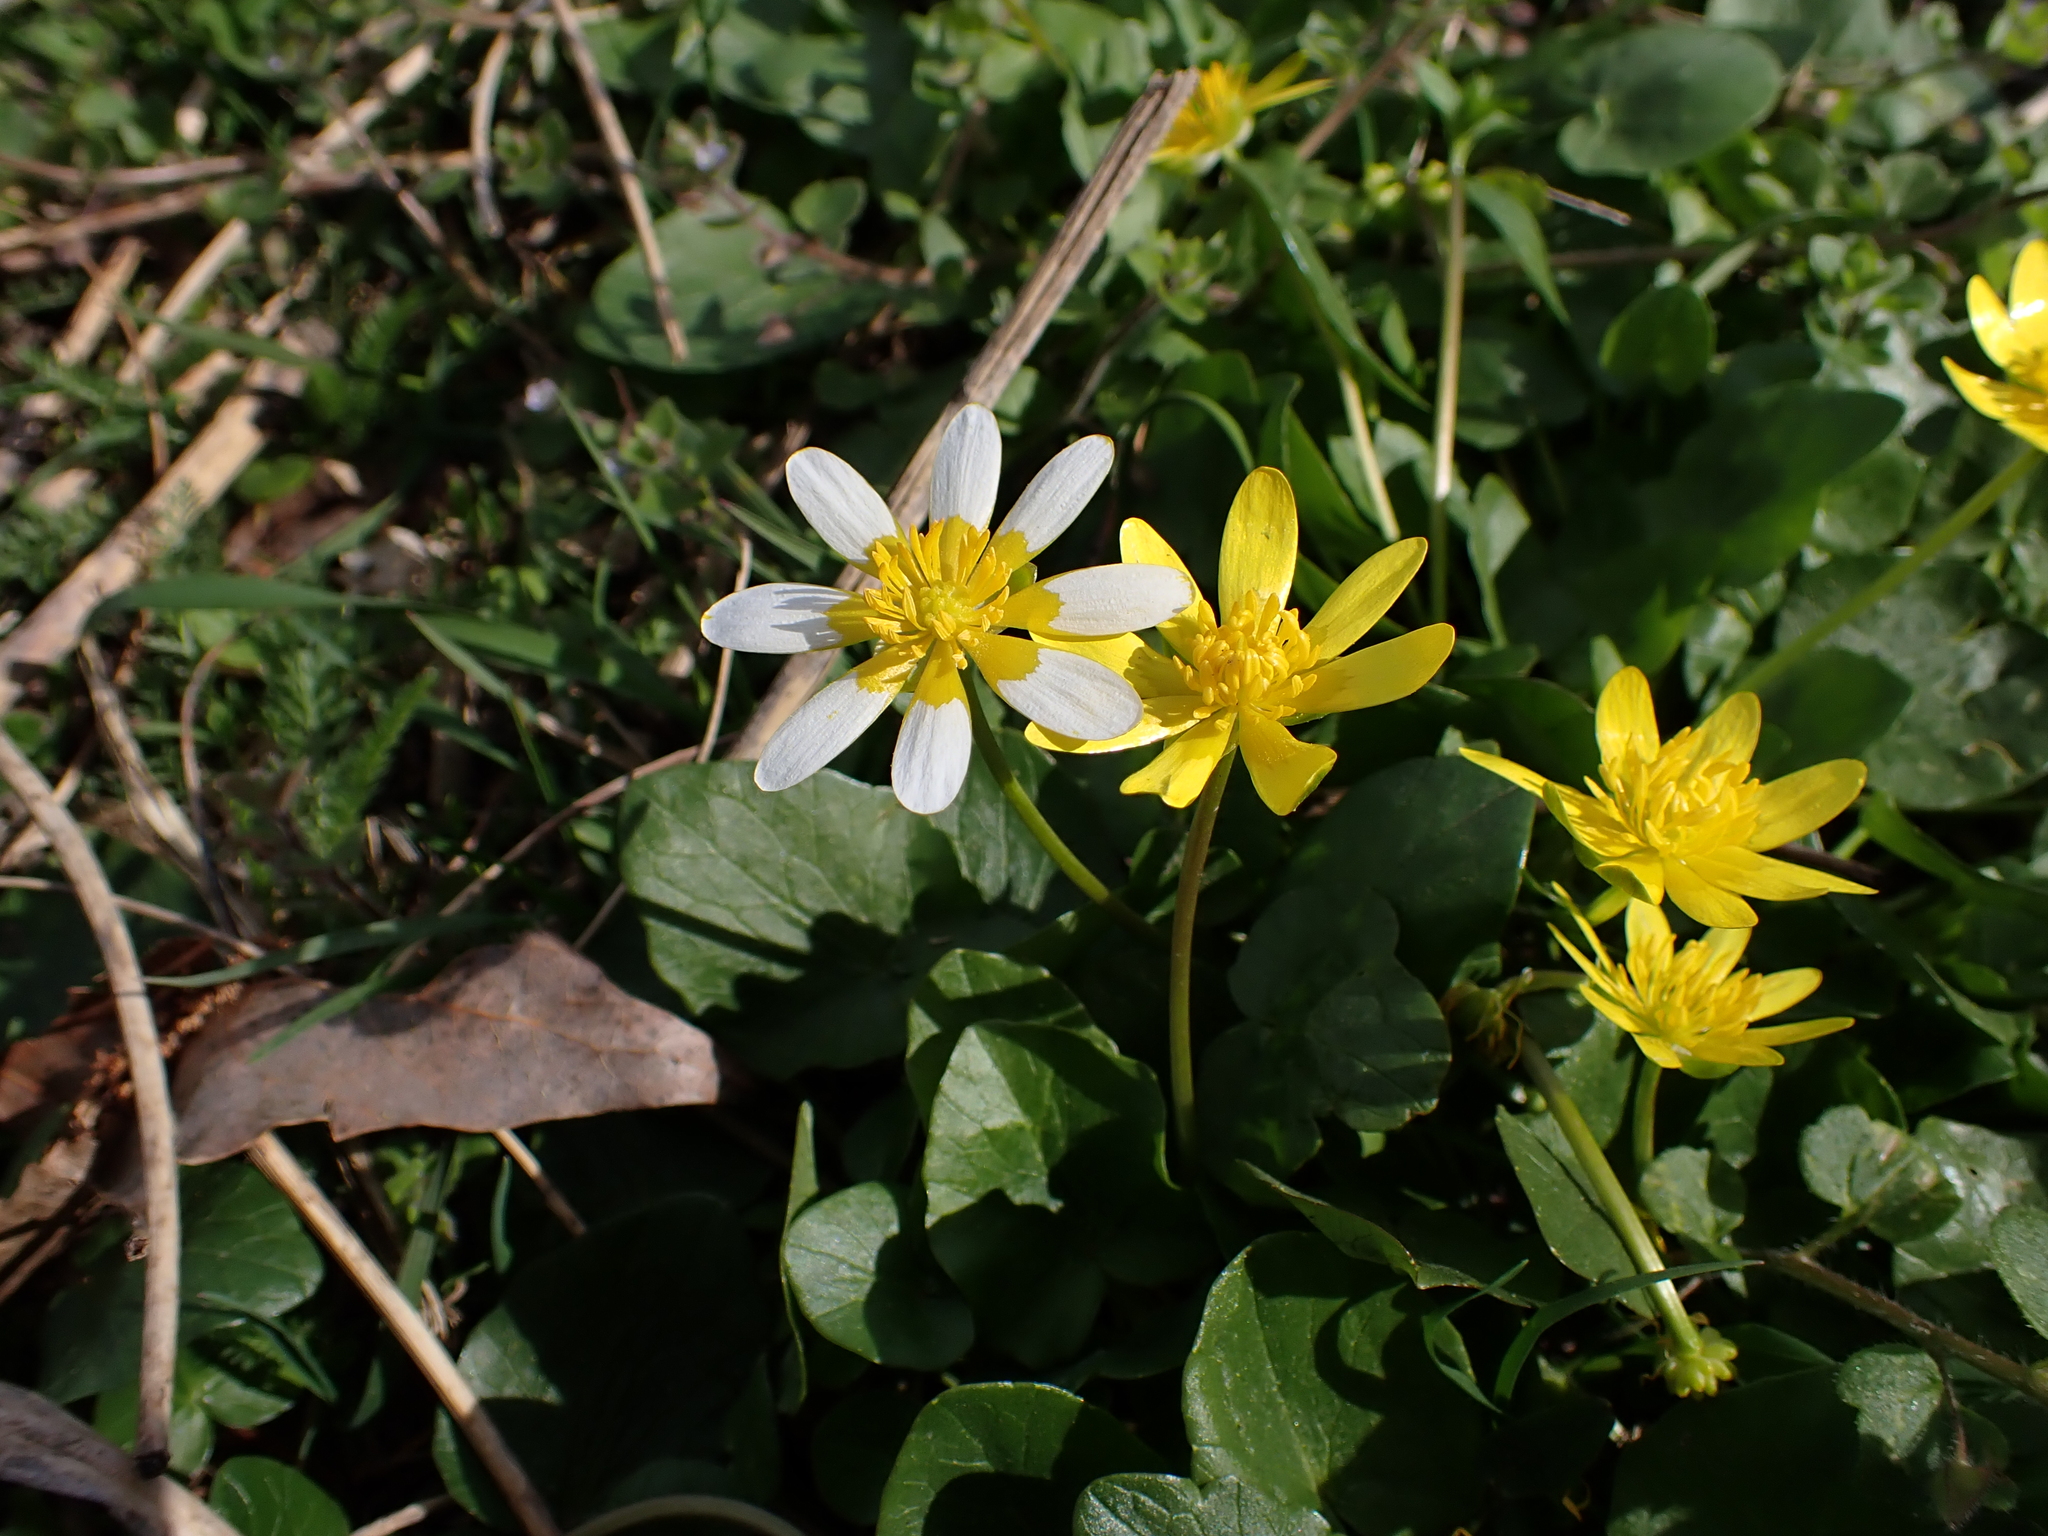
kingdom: Plantae
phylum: Tracheophyta
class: Magnoliopsida
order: Ranunculales
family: Ranunculaceae
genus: Ficaria
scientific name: Ficaria verna
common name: Lesser celandine
